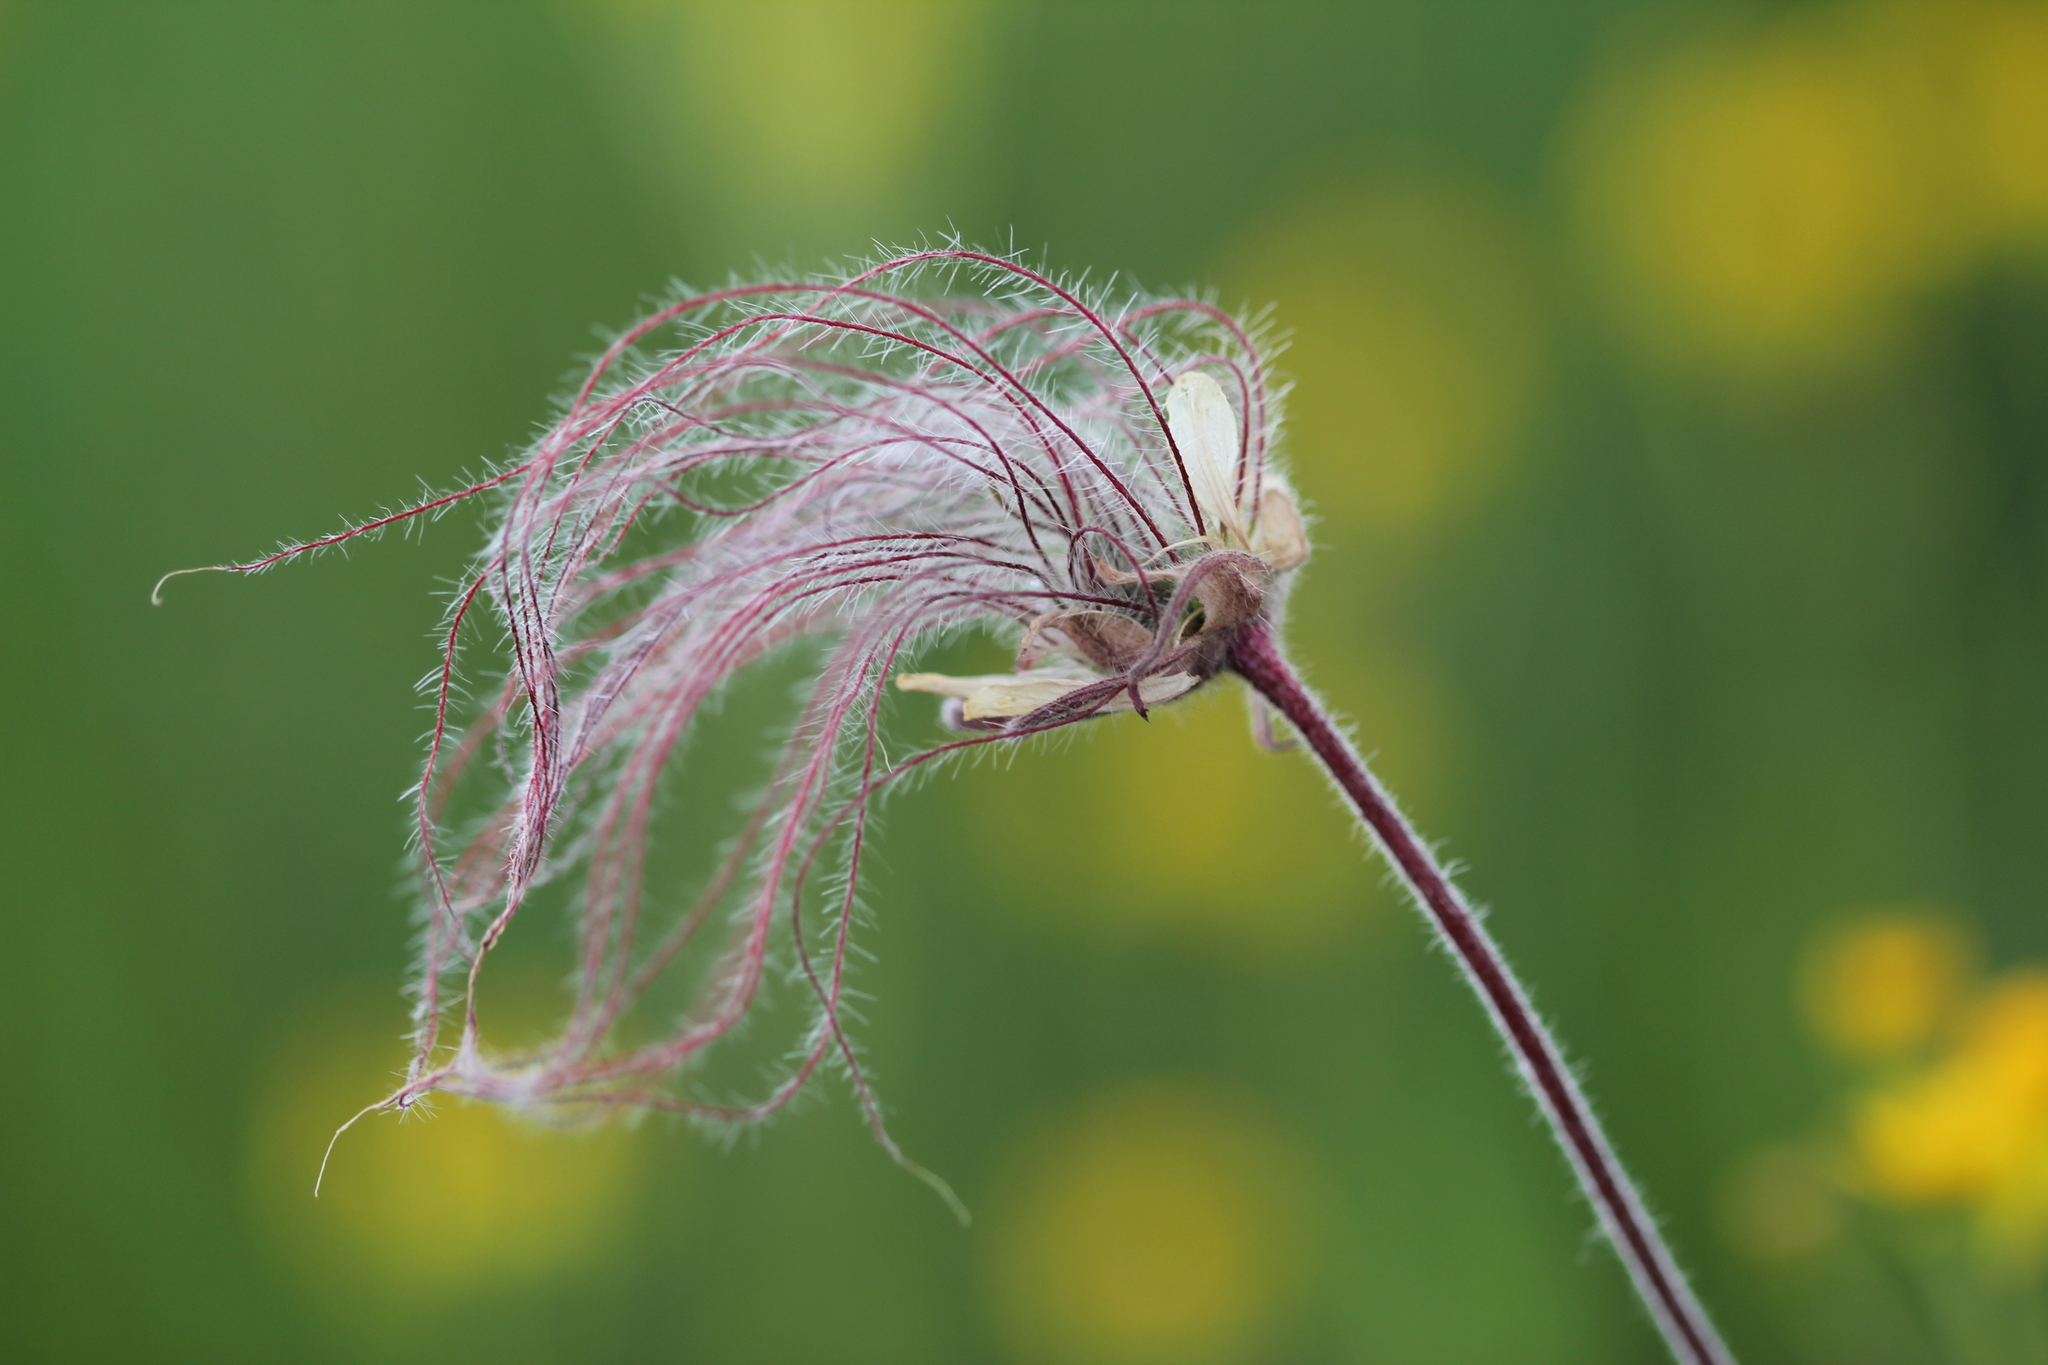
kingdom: Plantae
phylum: Tracheophyta
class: Magnoliopsida
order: Rosales
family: Rosaceae
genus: Geum
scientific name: Geum triflorum
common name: Old man's whiskers
